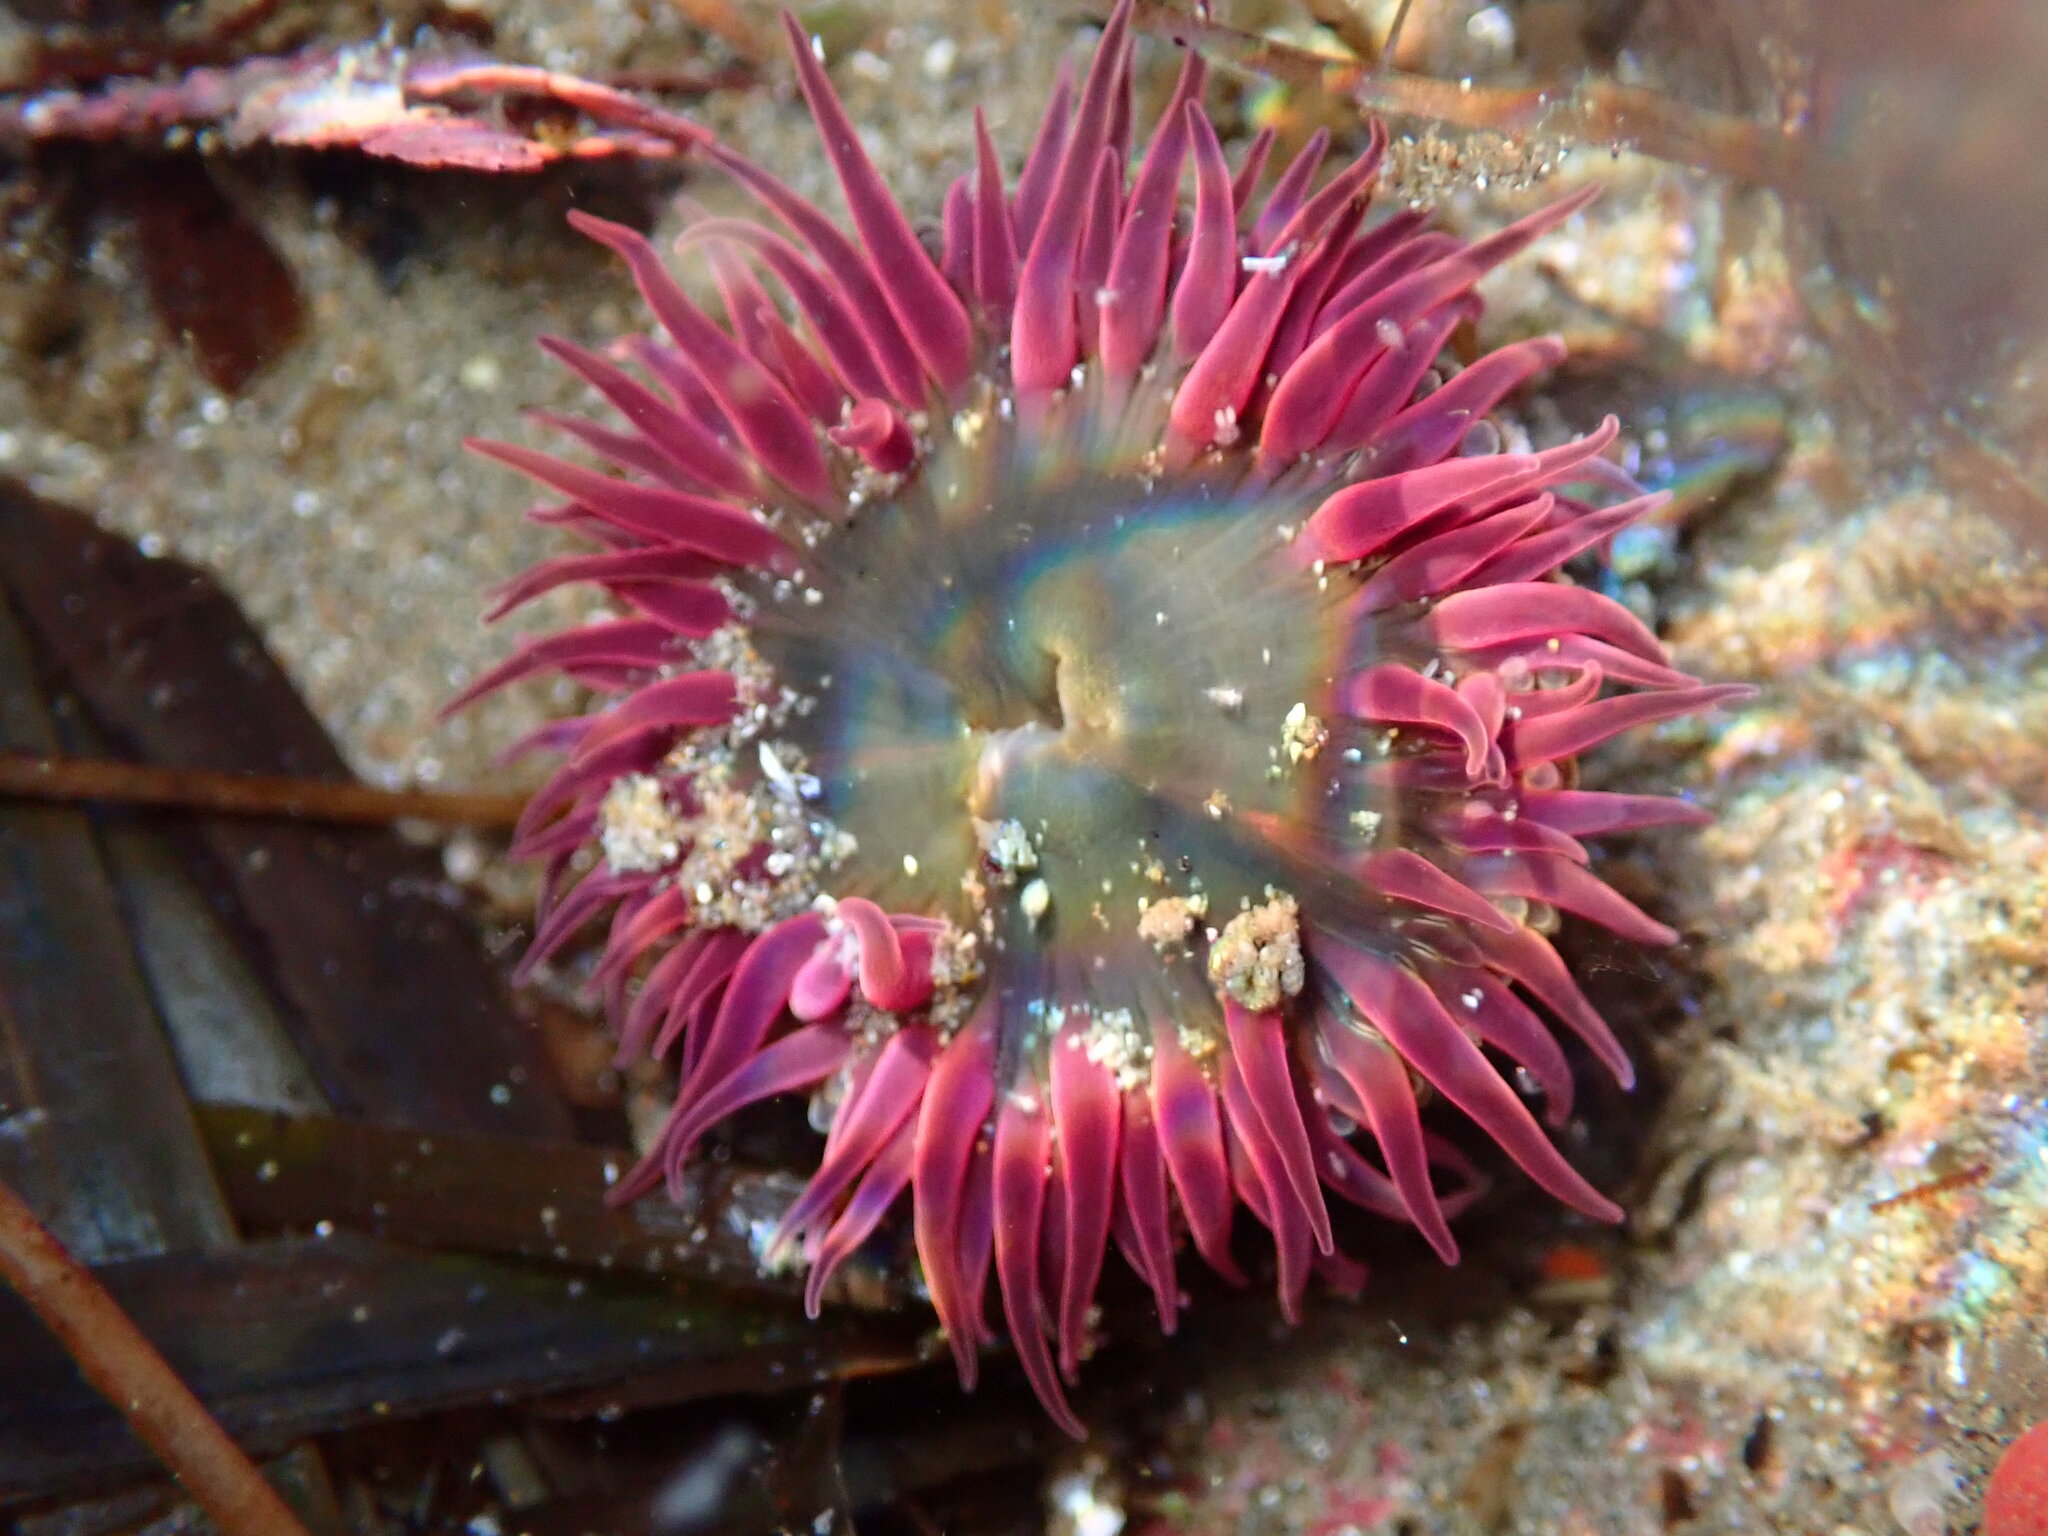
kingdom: Animalia
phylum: Cnidaria
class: Anthozoa
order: Actiniaria
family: Actiniidae
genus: Anthopleura
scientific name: Anthopleura artemisia
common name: Buried sea anemone
